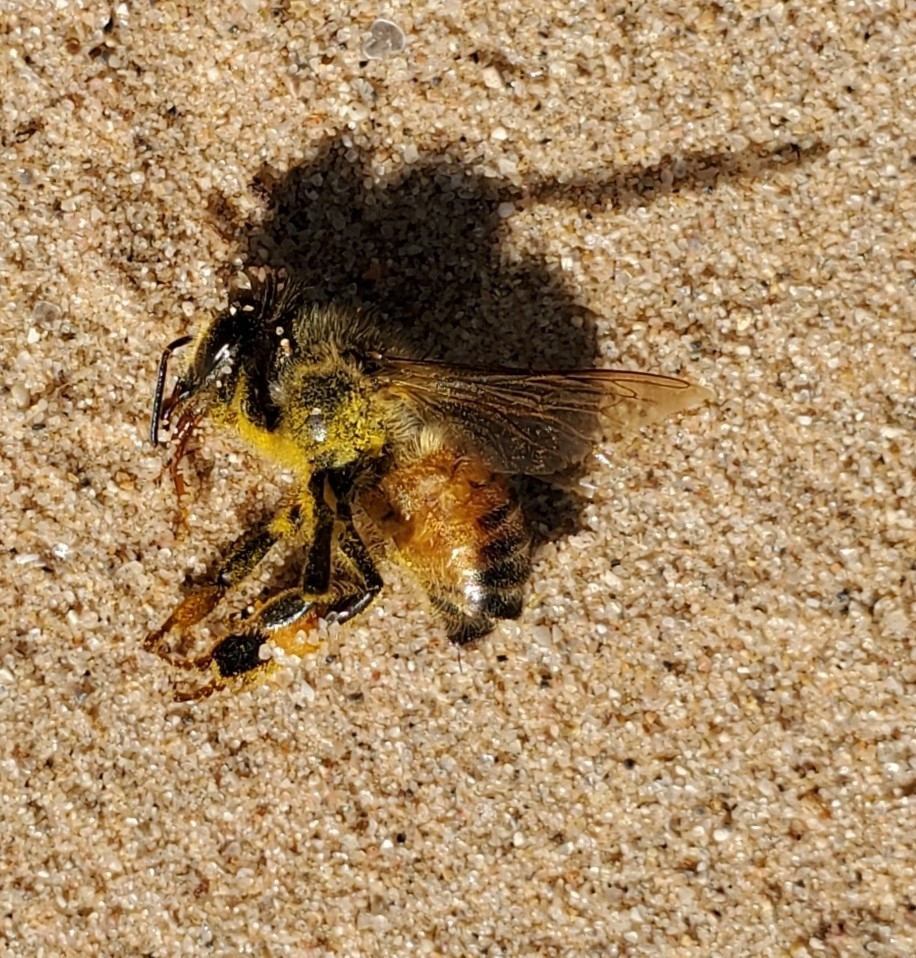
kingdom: Animalia
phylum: Arthropoda
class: Insecta
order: Hymenoptera
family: Apidae
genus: Apis
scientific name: Apis mellifera
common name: Honey bee
